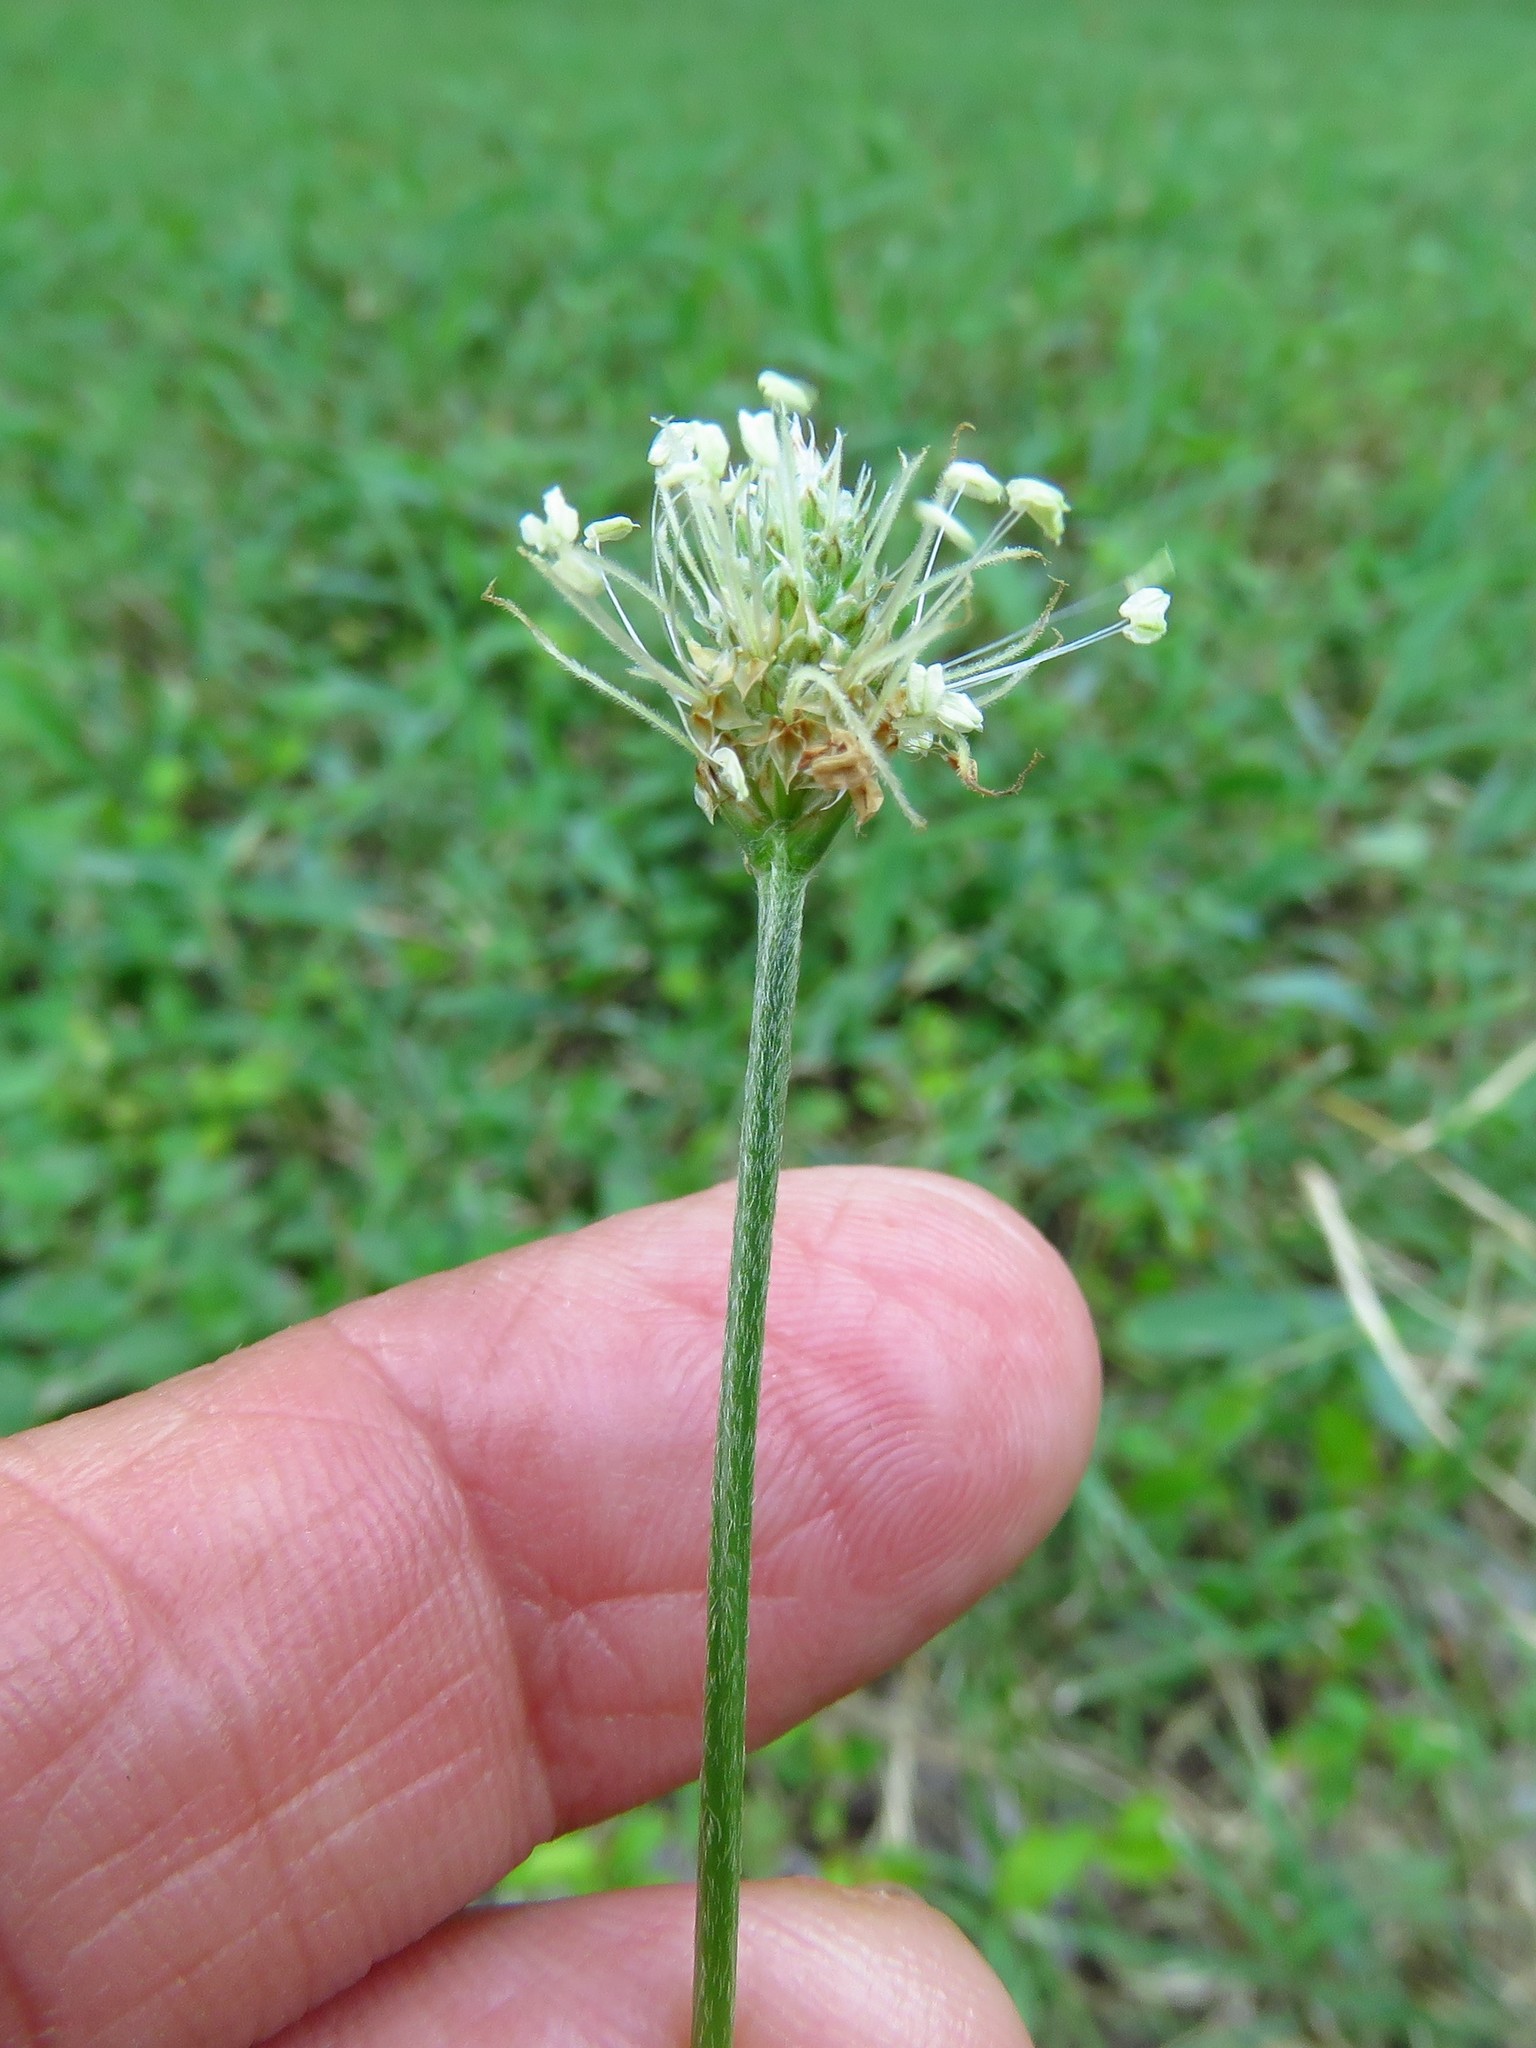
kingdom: Plantae
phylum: Tracheophyta
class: Magnoliopsida
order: Lamiales
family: Plantaginaceae
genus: Plantago
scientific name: Plantago lanceolata
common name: Ribwort plantain
